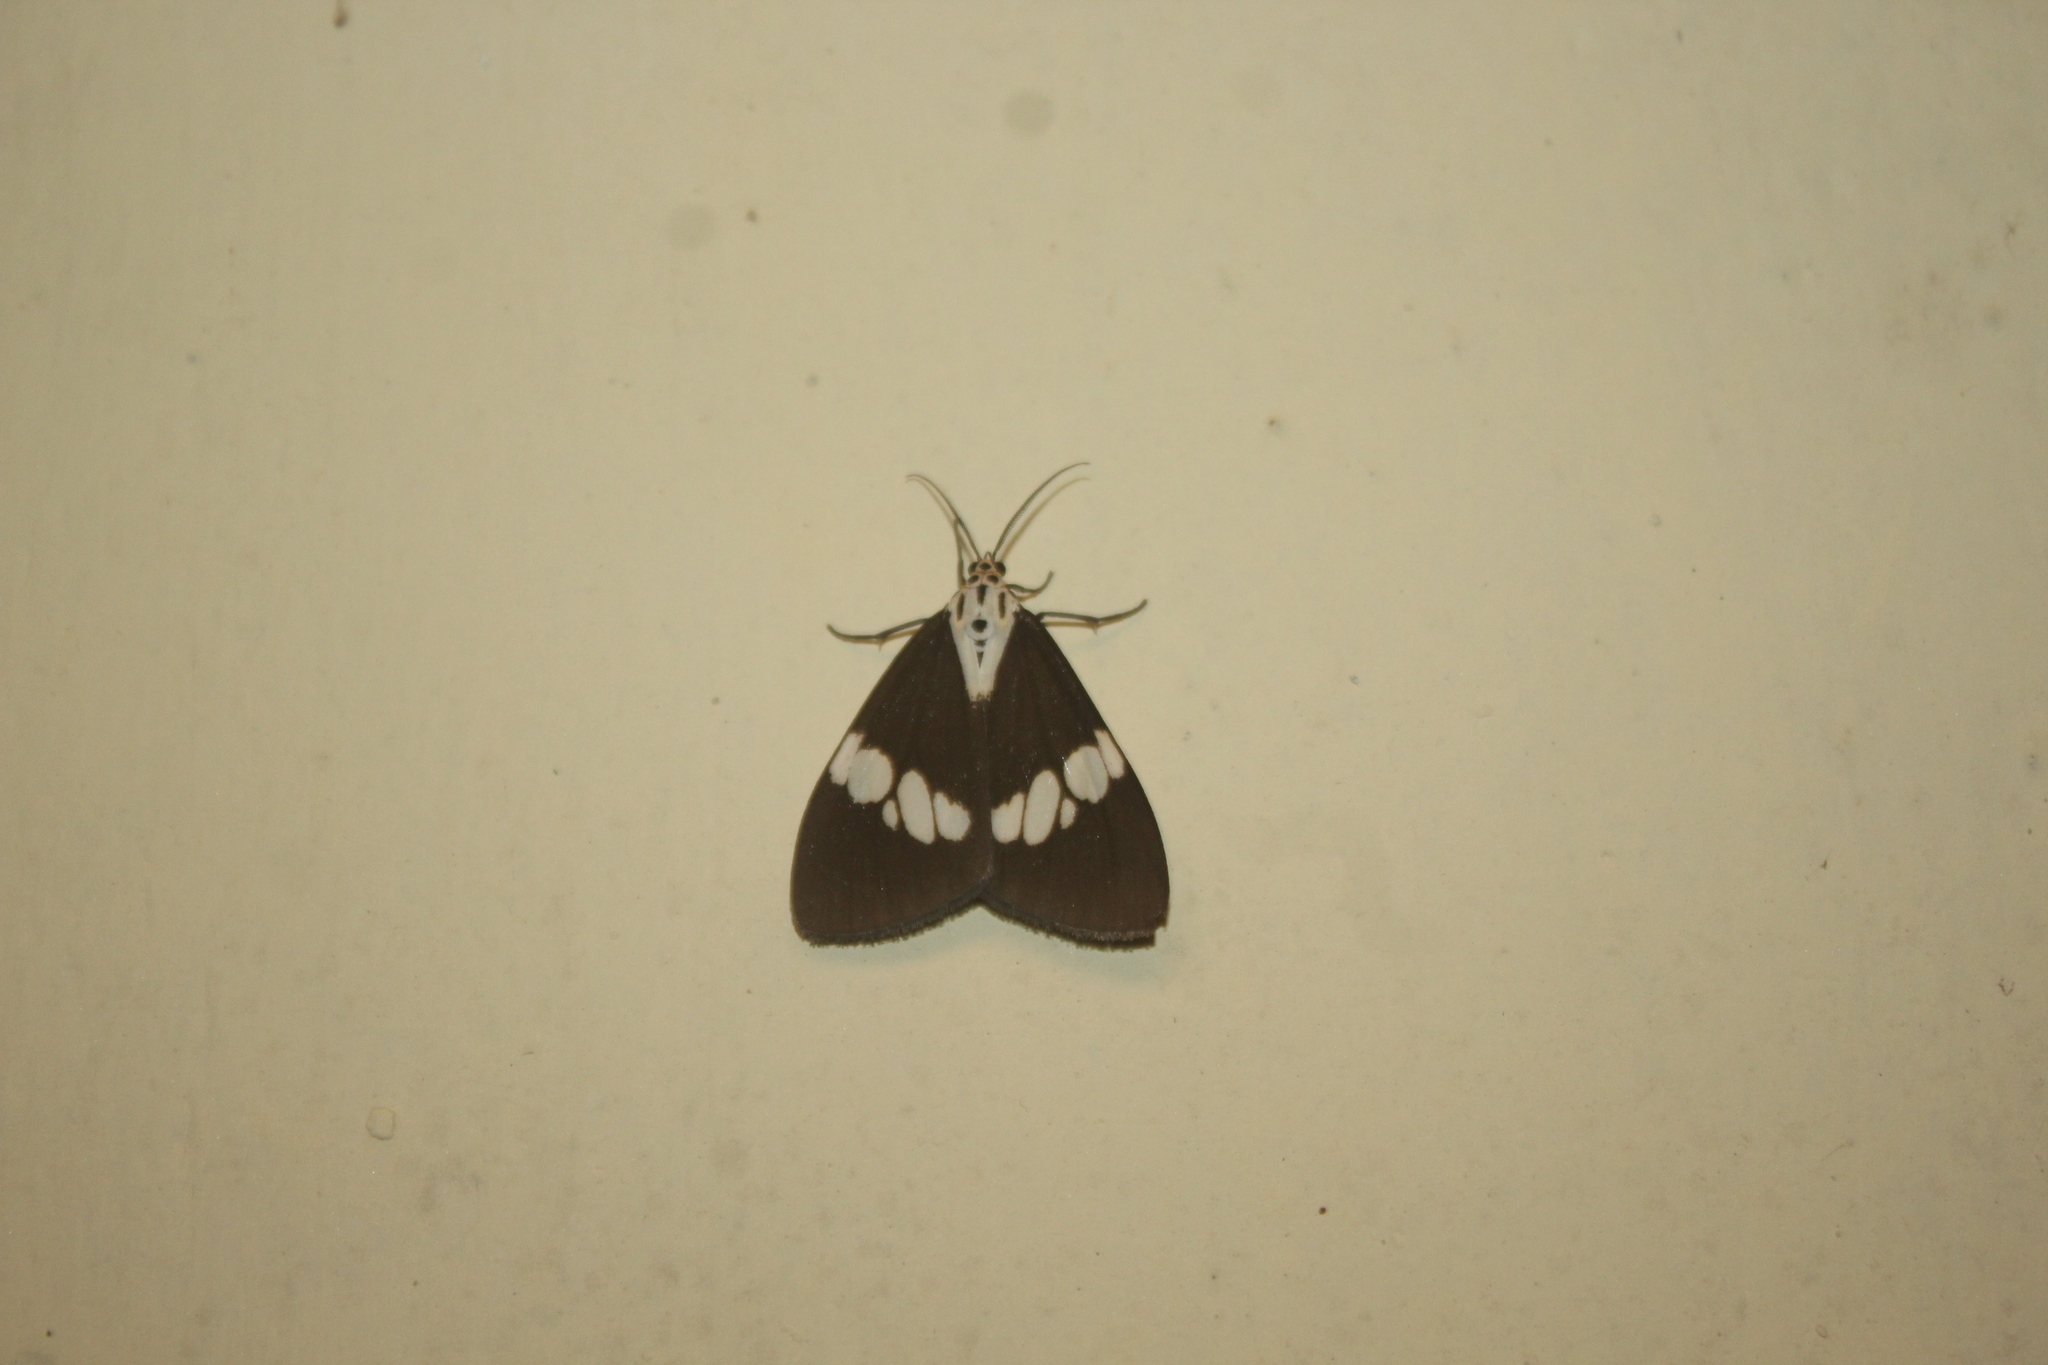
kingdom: Animalia
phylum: Arthropoda
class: Insecta
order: Lepidoptera
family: Erebidae
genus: Nyctemera
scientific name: Nyctemera lacticinia
